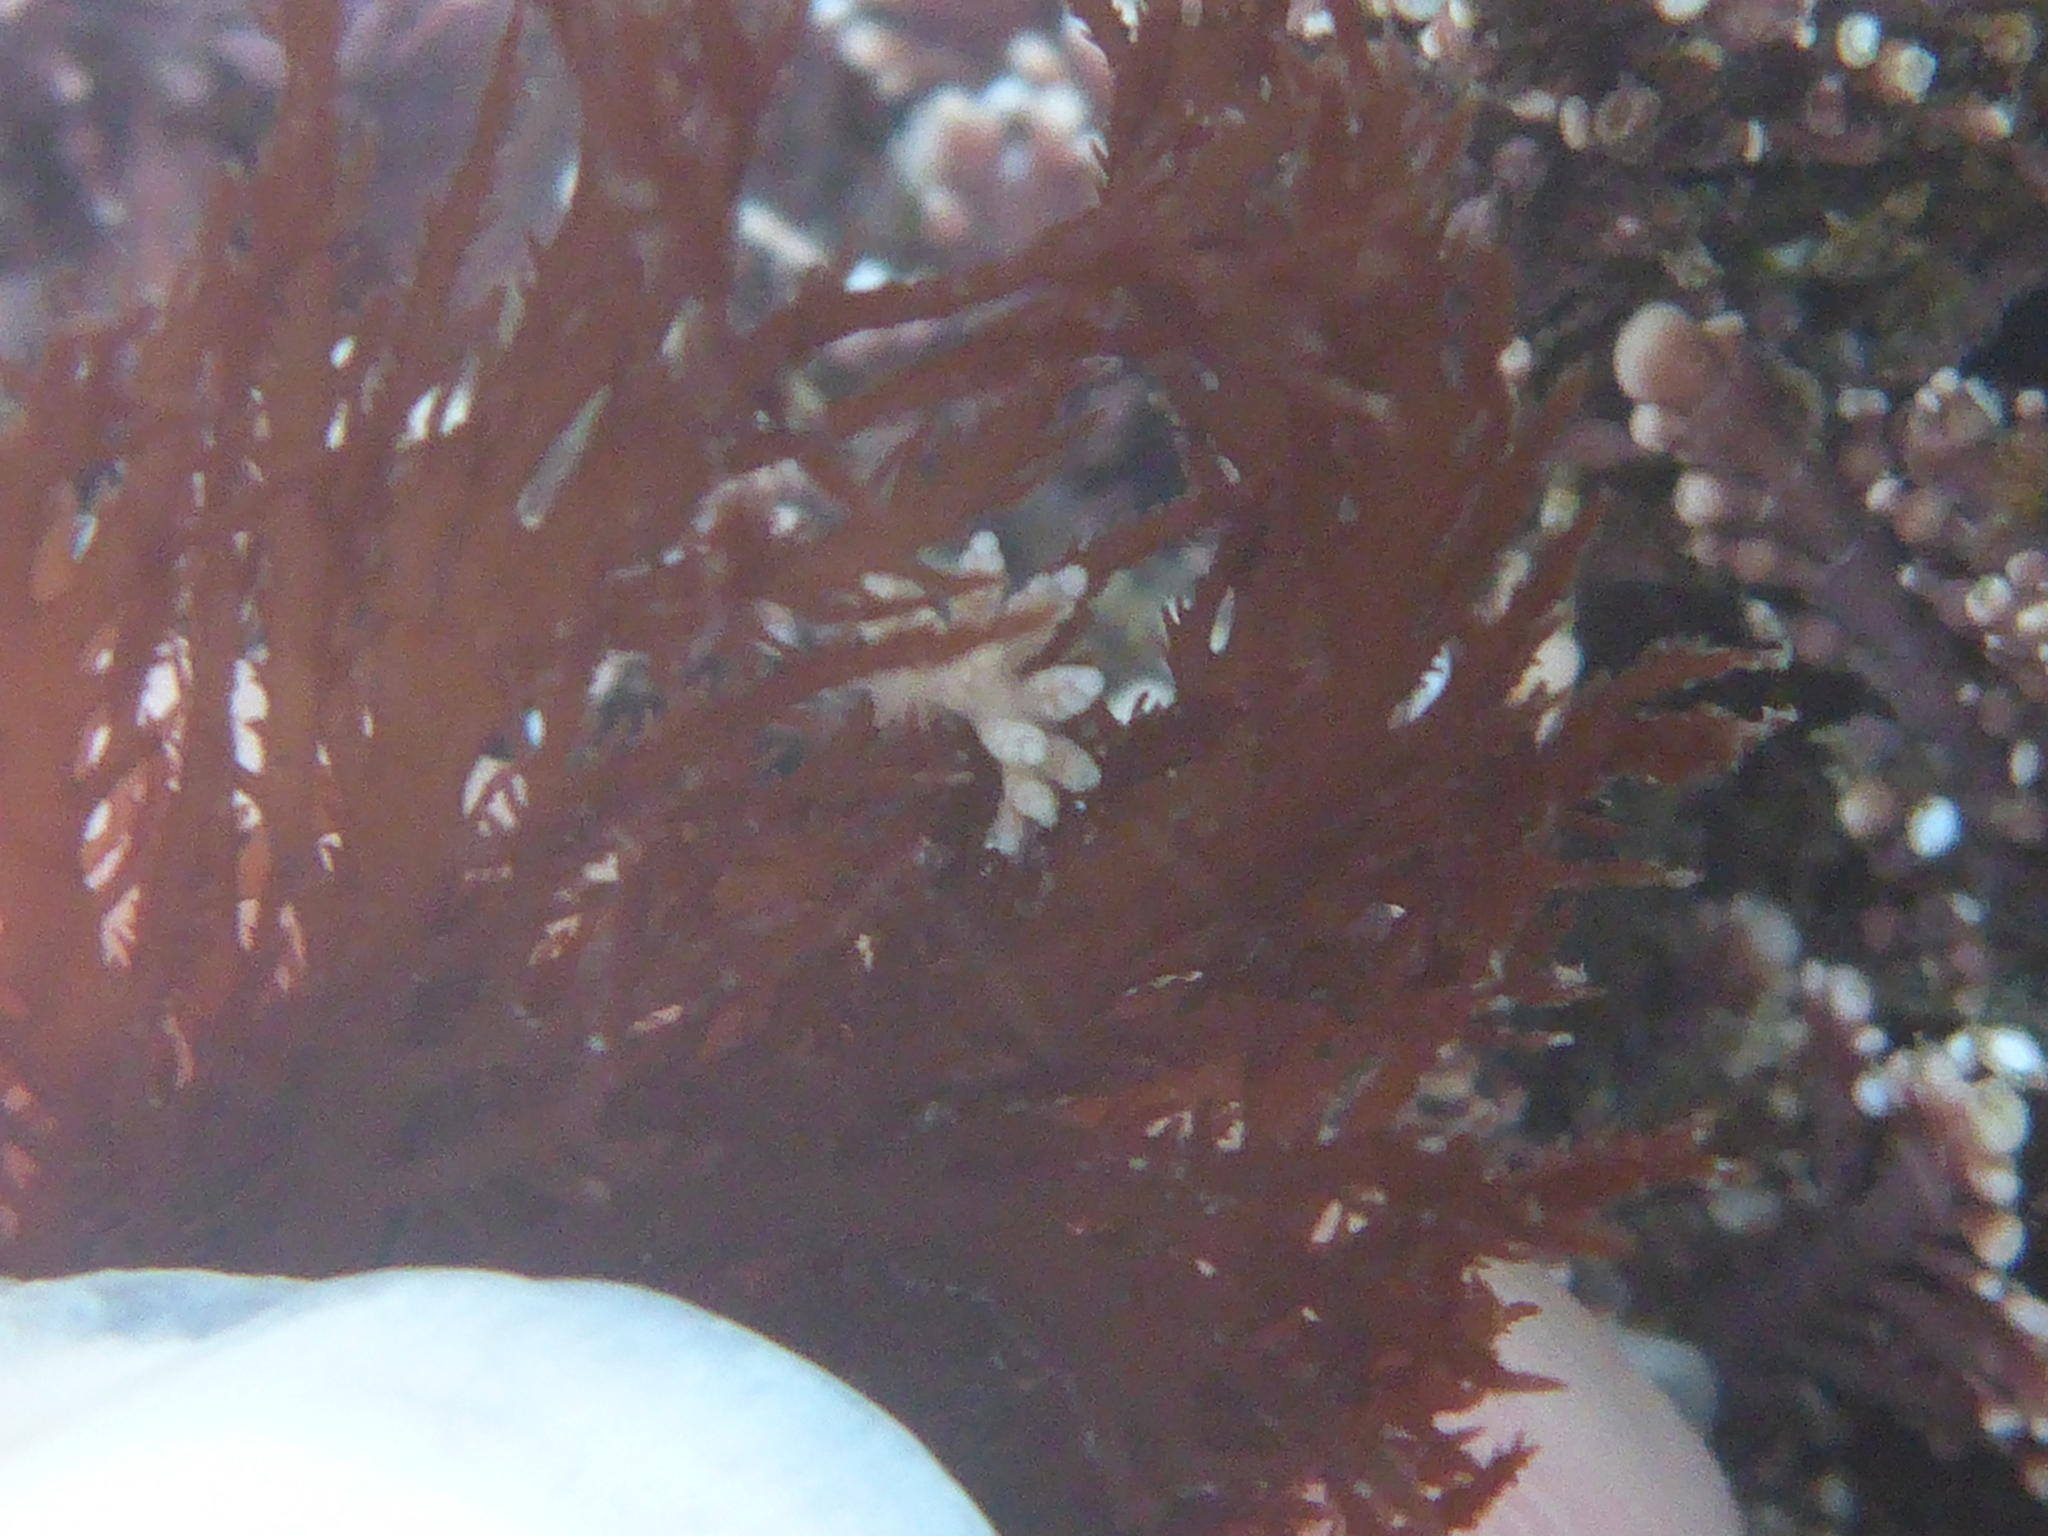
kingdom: Animalia
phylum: Mollusca
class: Gastropoda
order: Nudibranchia
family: Dotidae
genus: Doto
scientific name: Doto amyra
